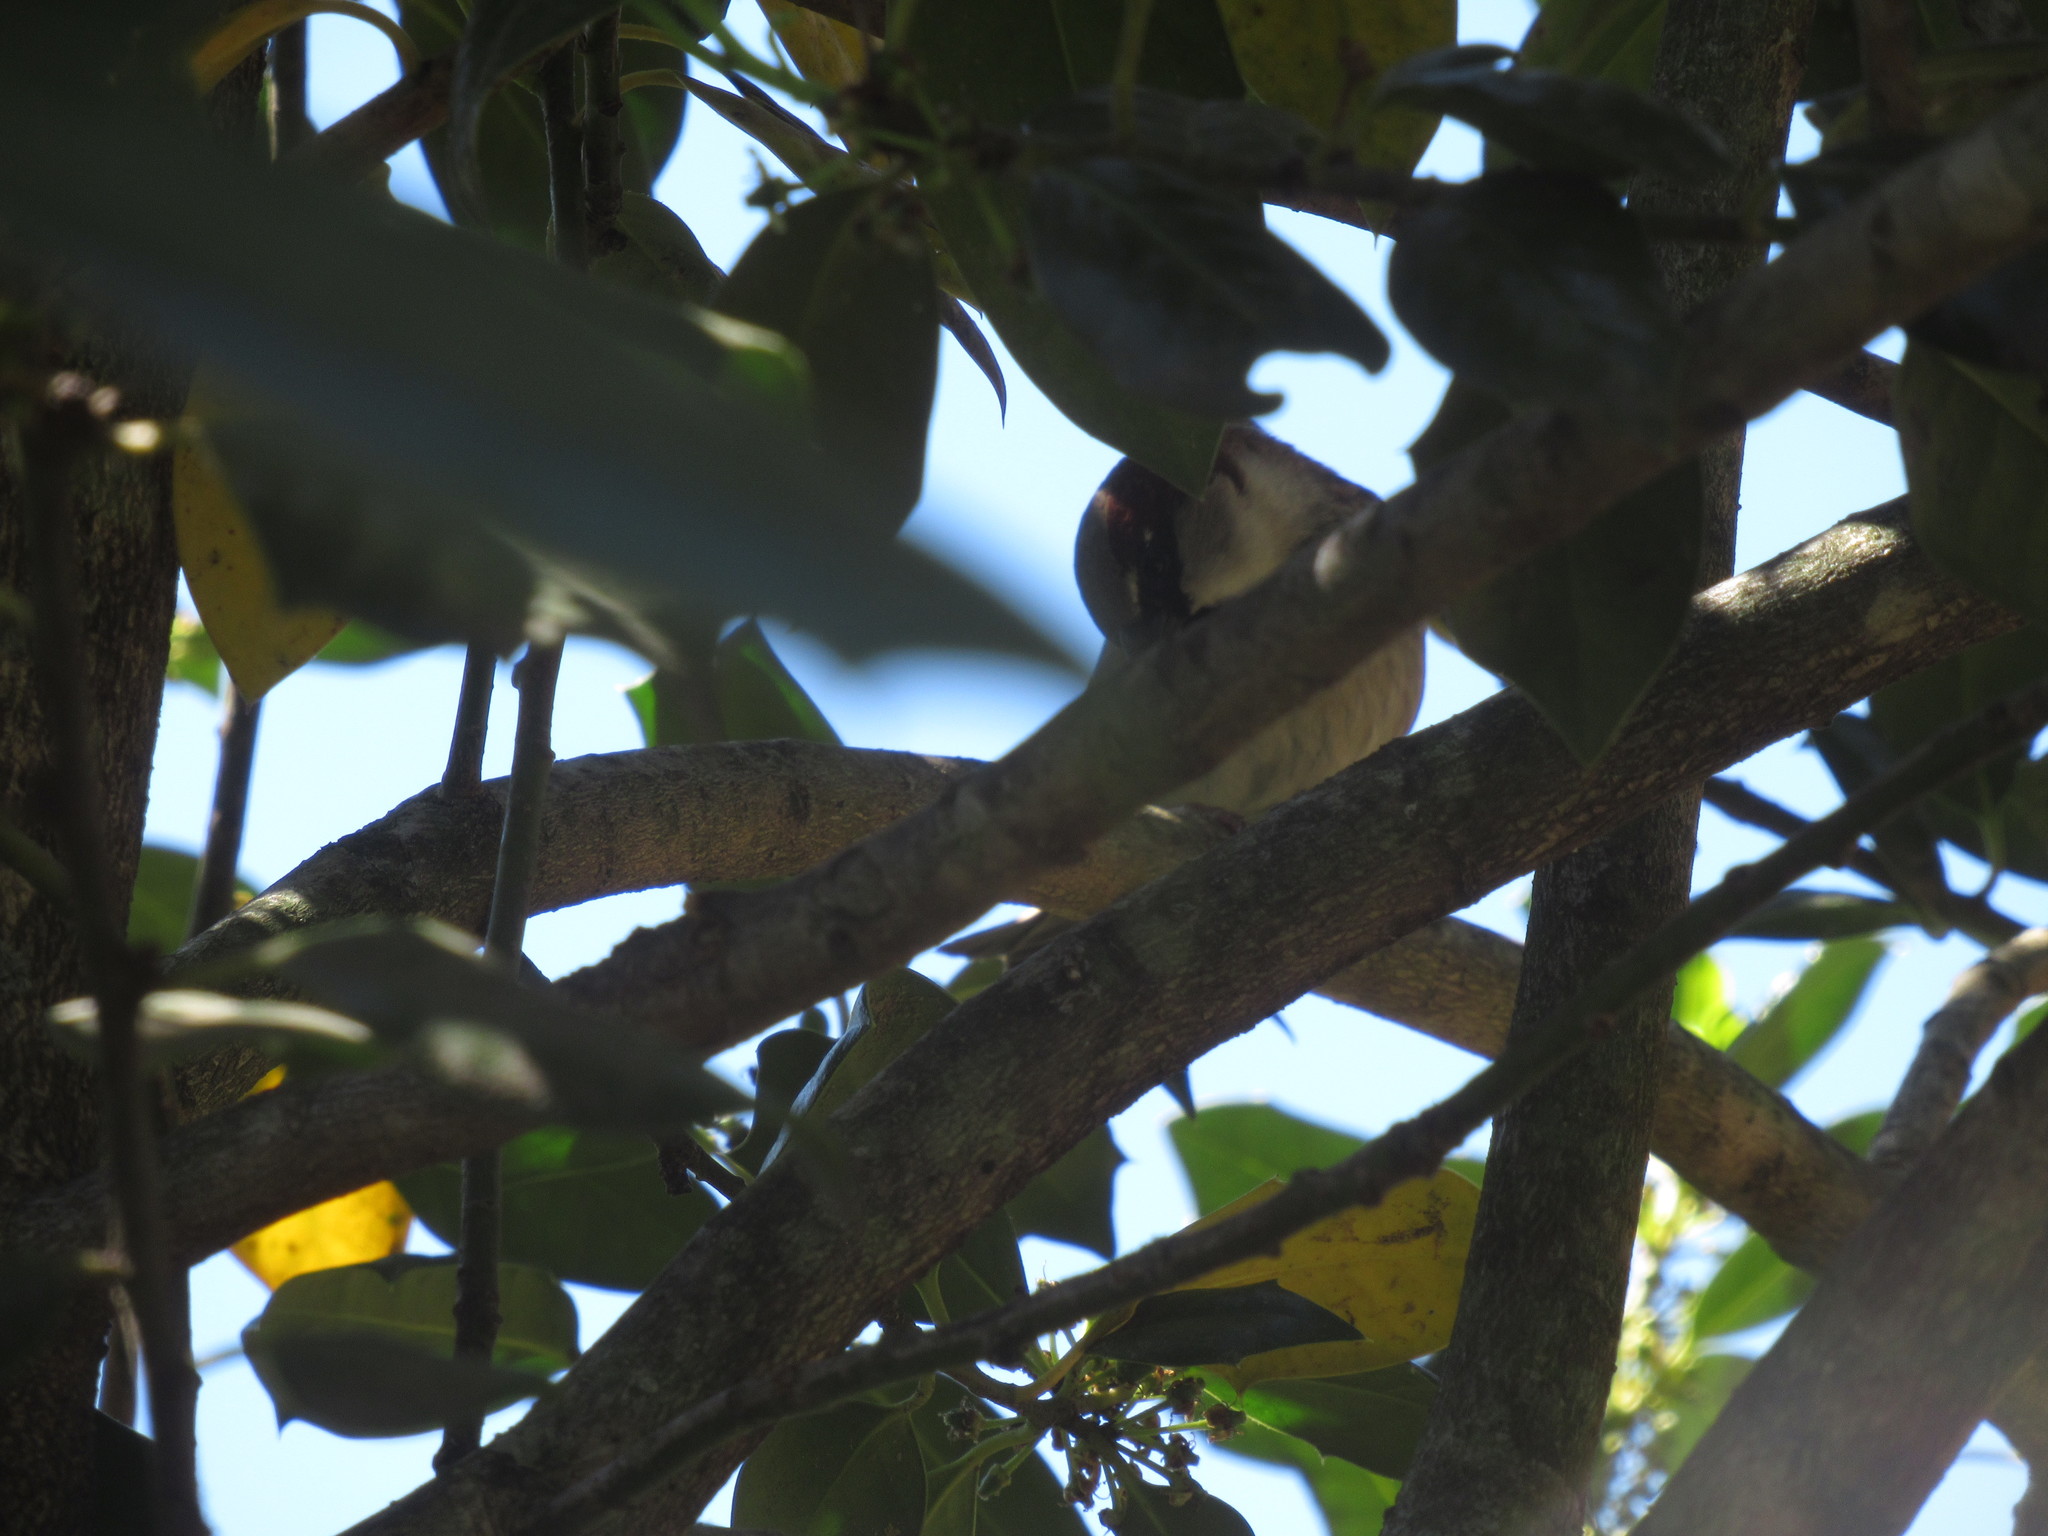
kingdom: Animalia
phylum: Chordata
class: Aves
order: Passeriformes
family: Passeridae
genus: Passer
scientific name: Passer domesticus
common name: House sparrow
